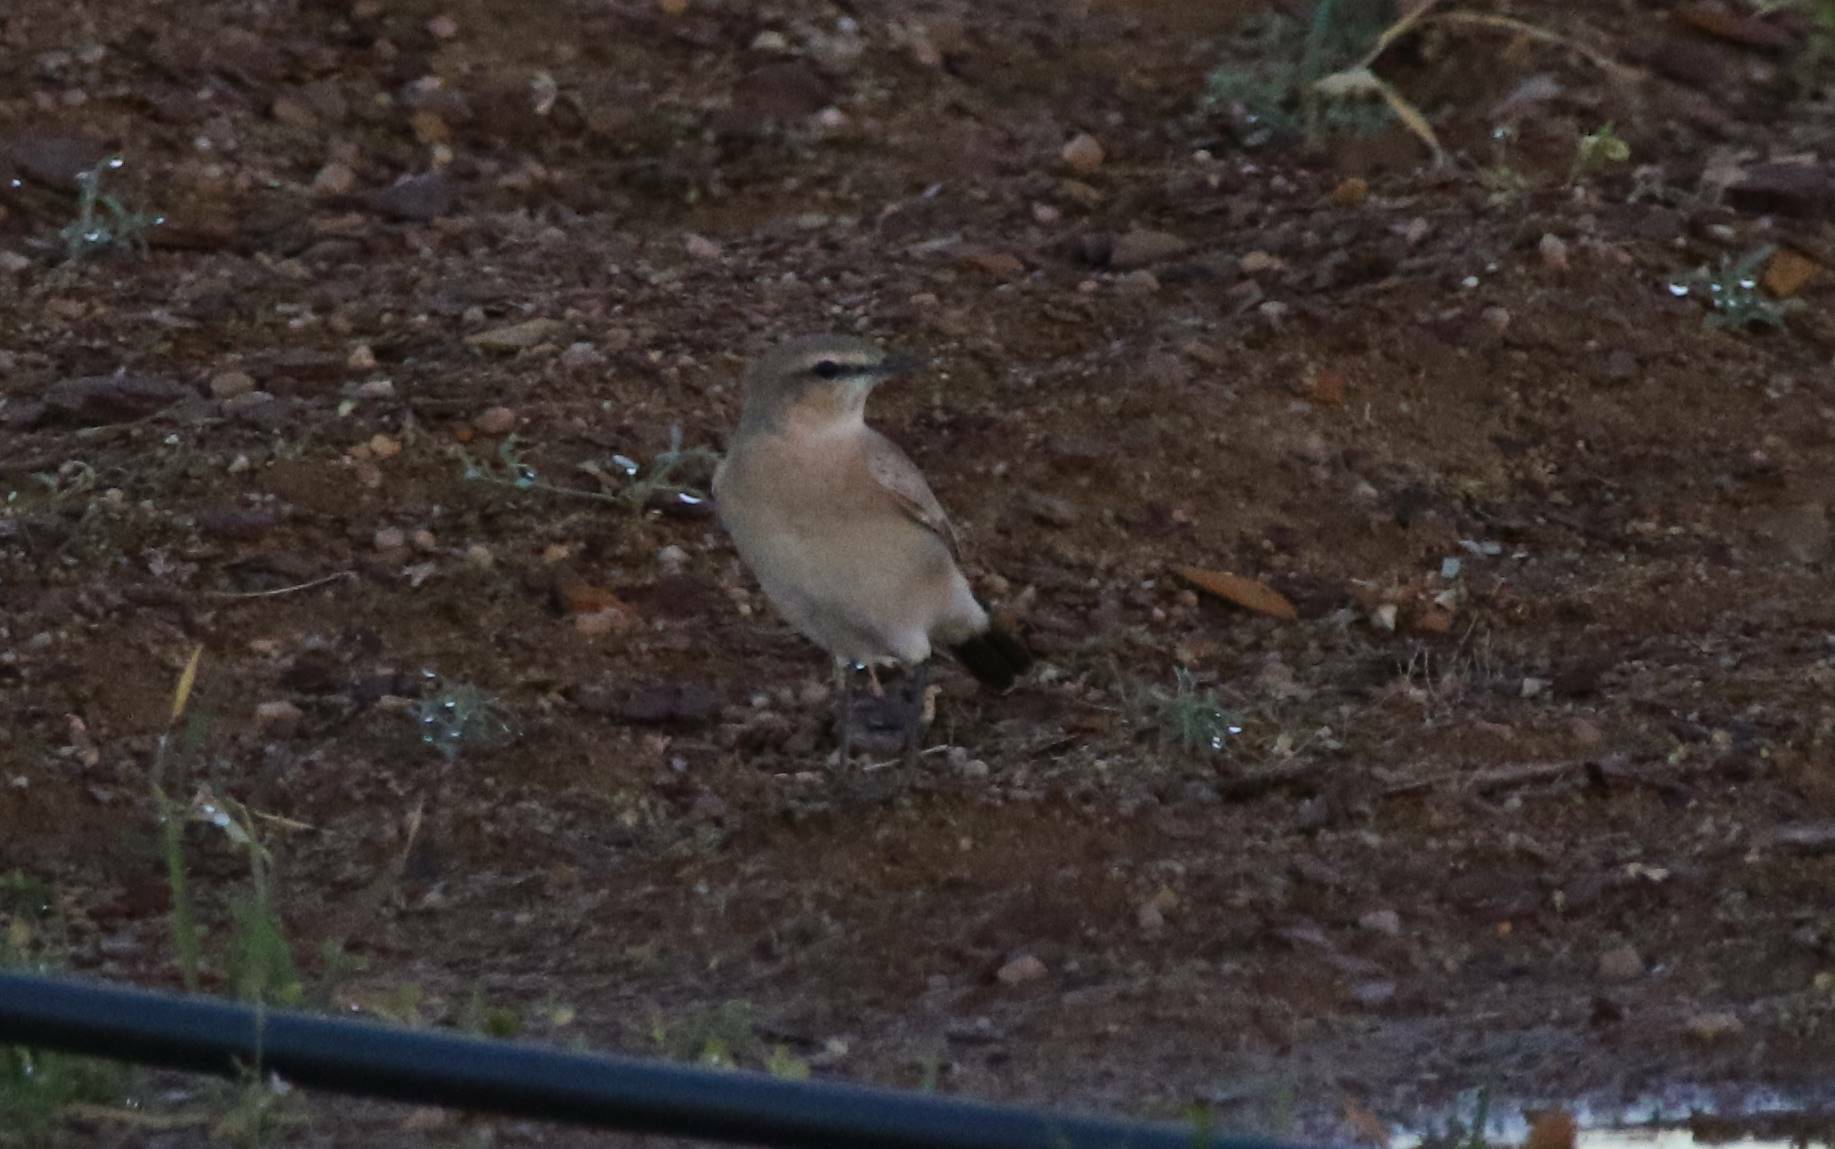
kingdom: Animalia
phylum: Chordata
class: Aves
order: Passeriformes
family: Muscicapidae
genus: Oenanthe
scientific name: Oenanthe isabellina
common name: Isabelline wheatear
